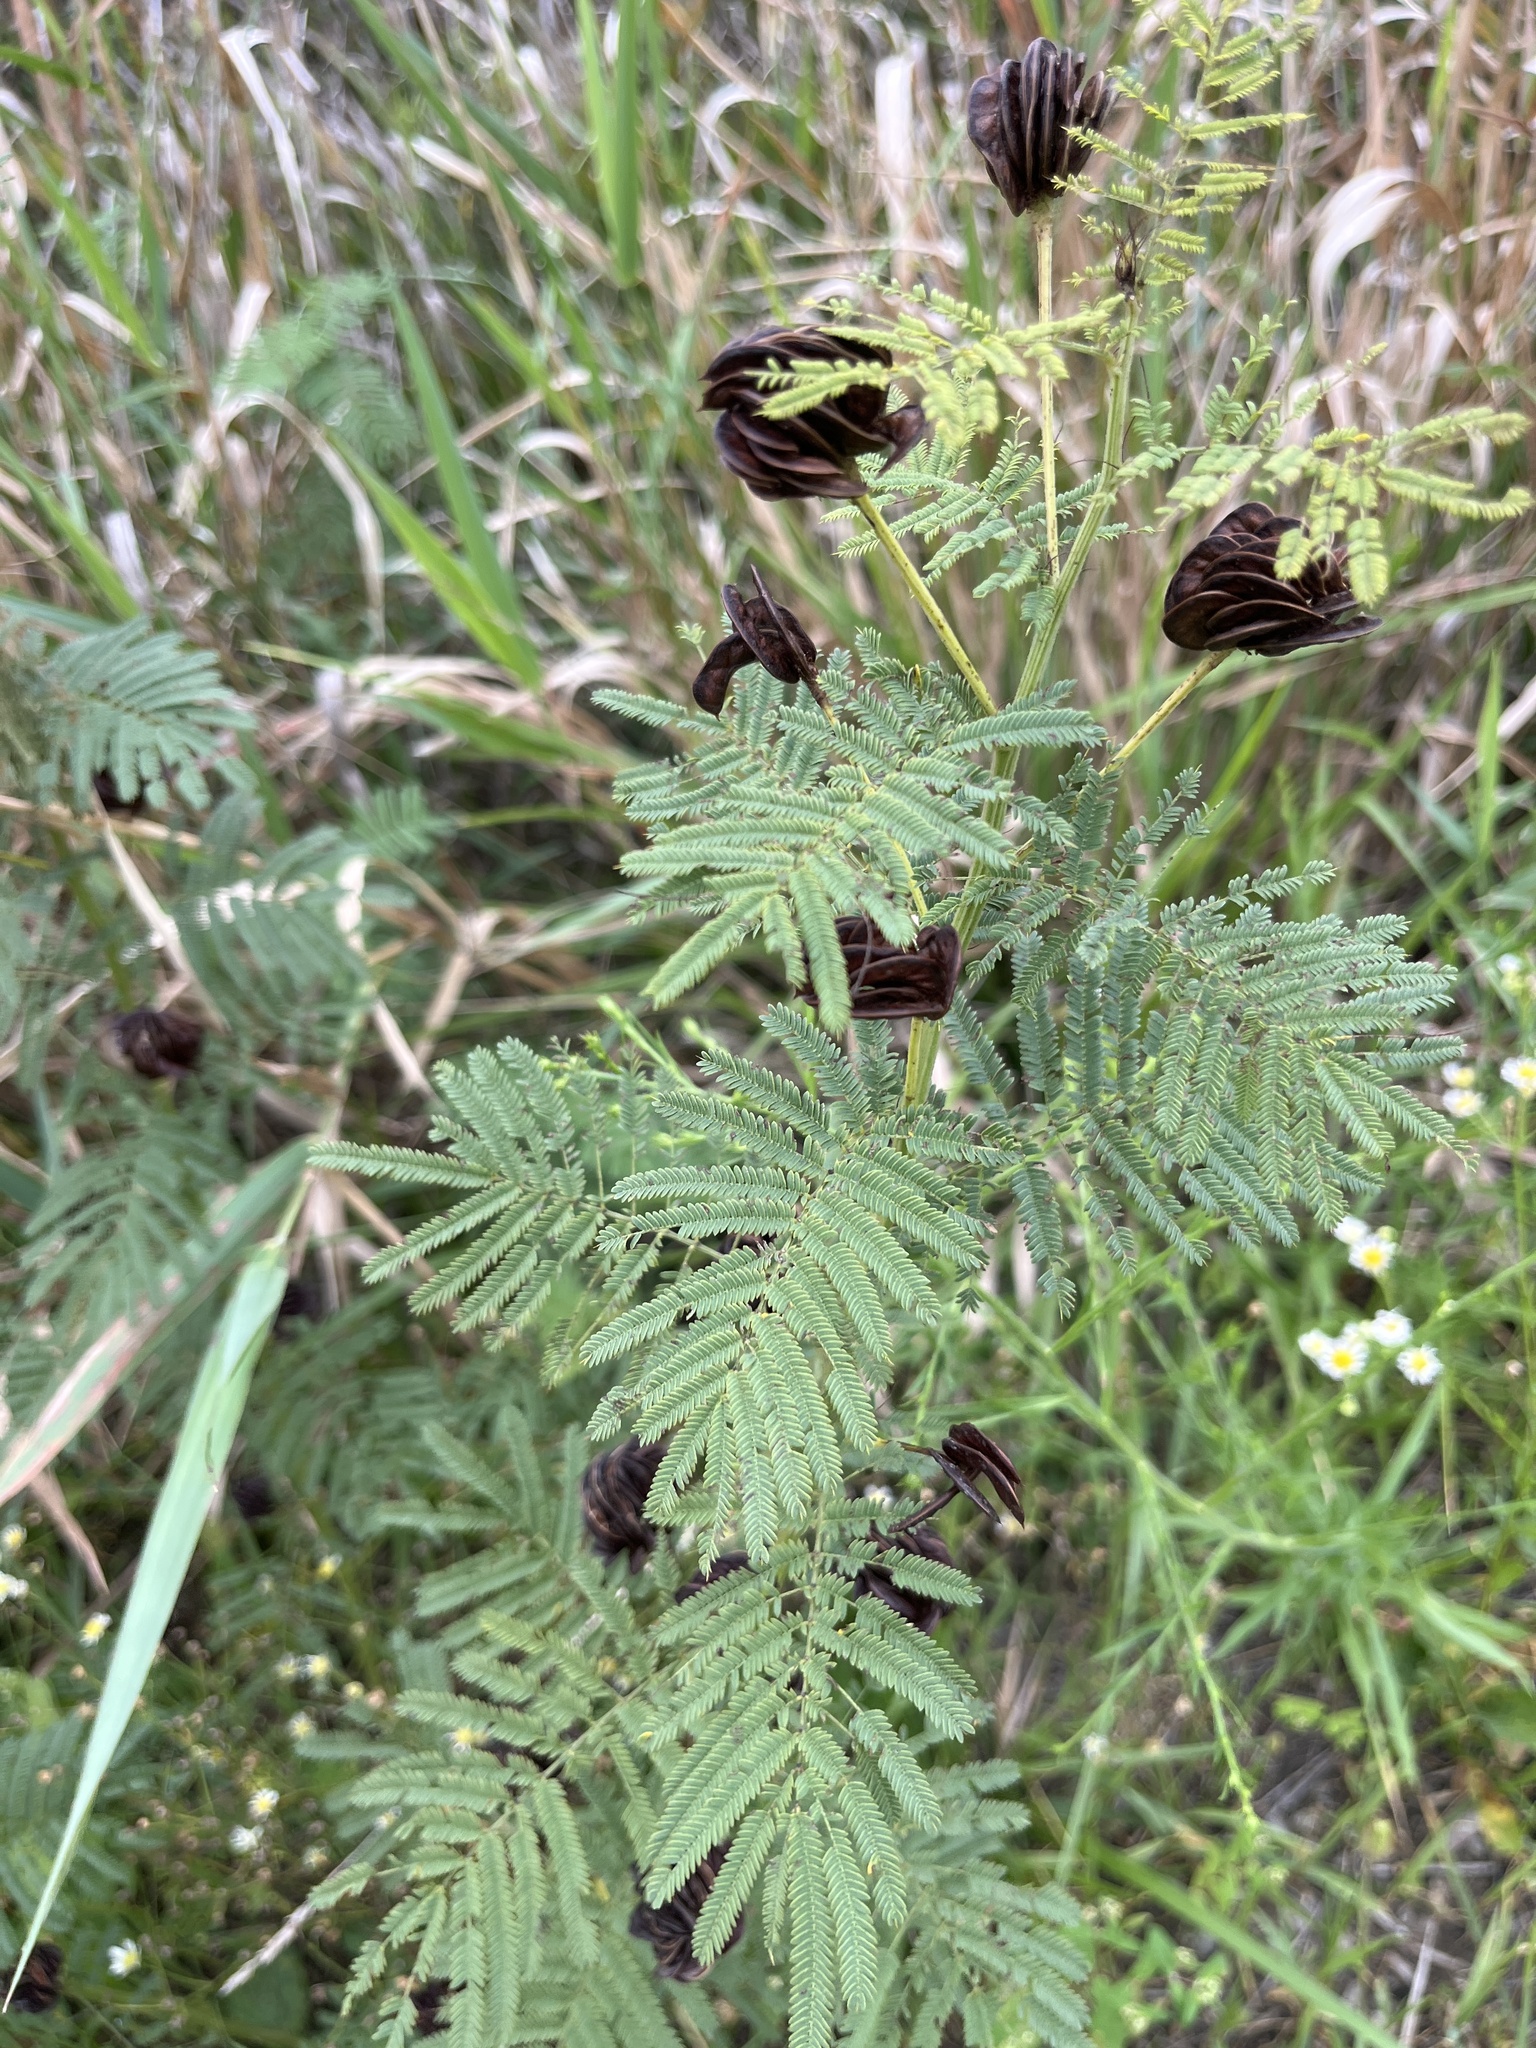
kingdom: Plantae
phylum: Tracheophyta
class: Magnoliopsida
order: Fabales
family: Fabaceae
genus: Desmanthus
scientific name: Desmanthus illinoensis
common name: Illinois bundle-flower
